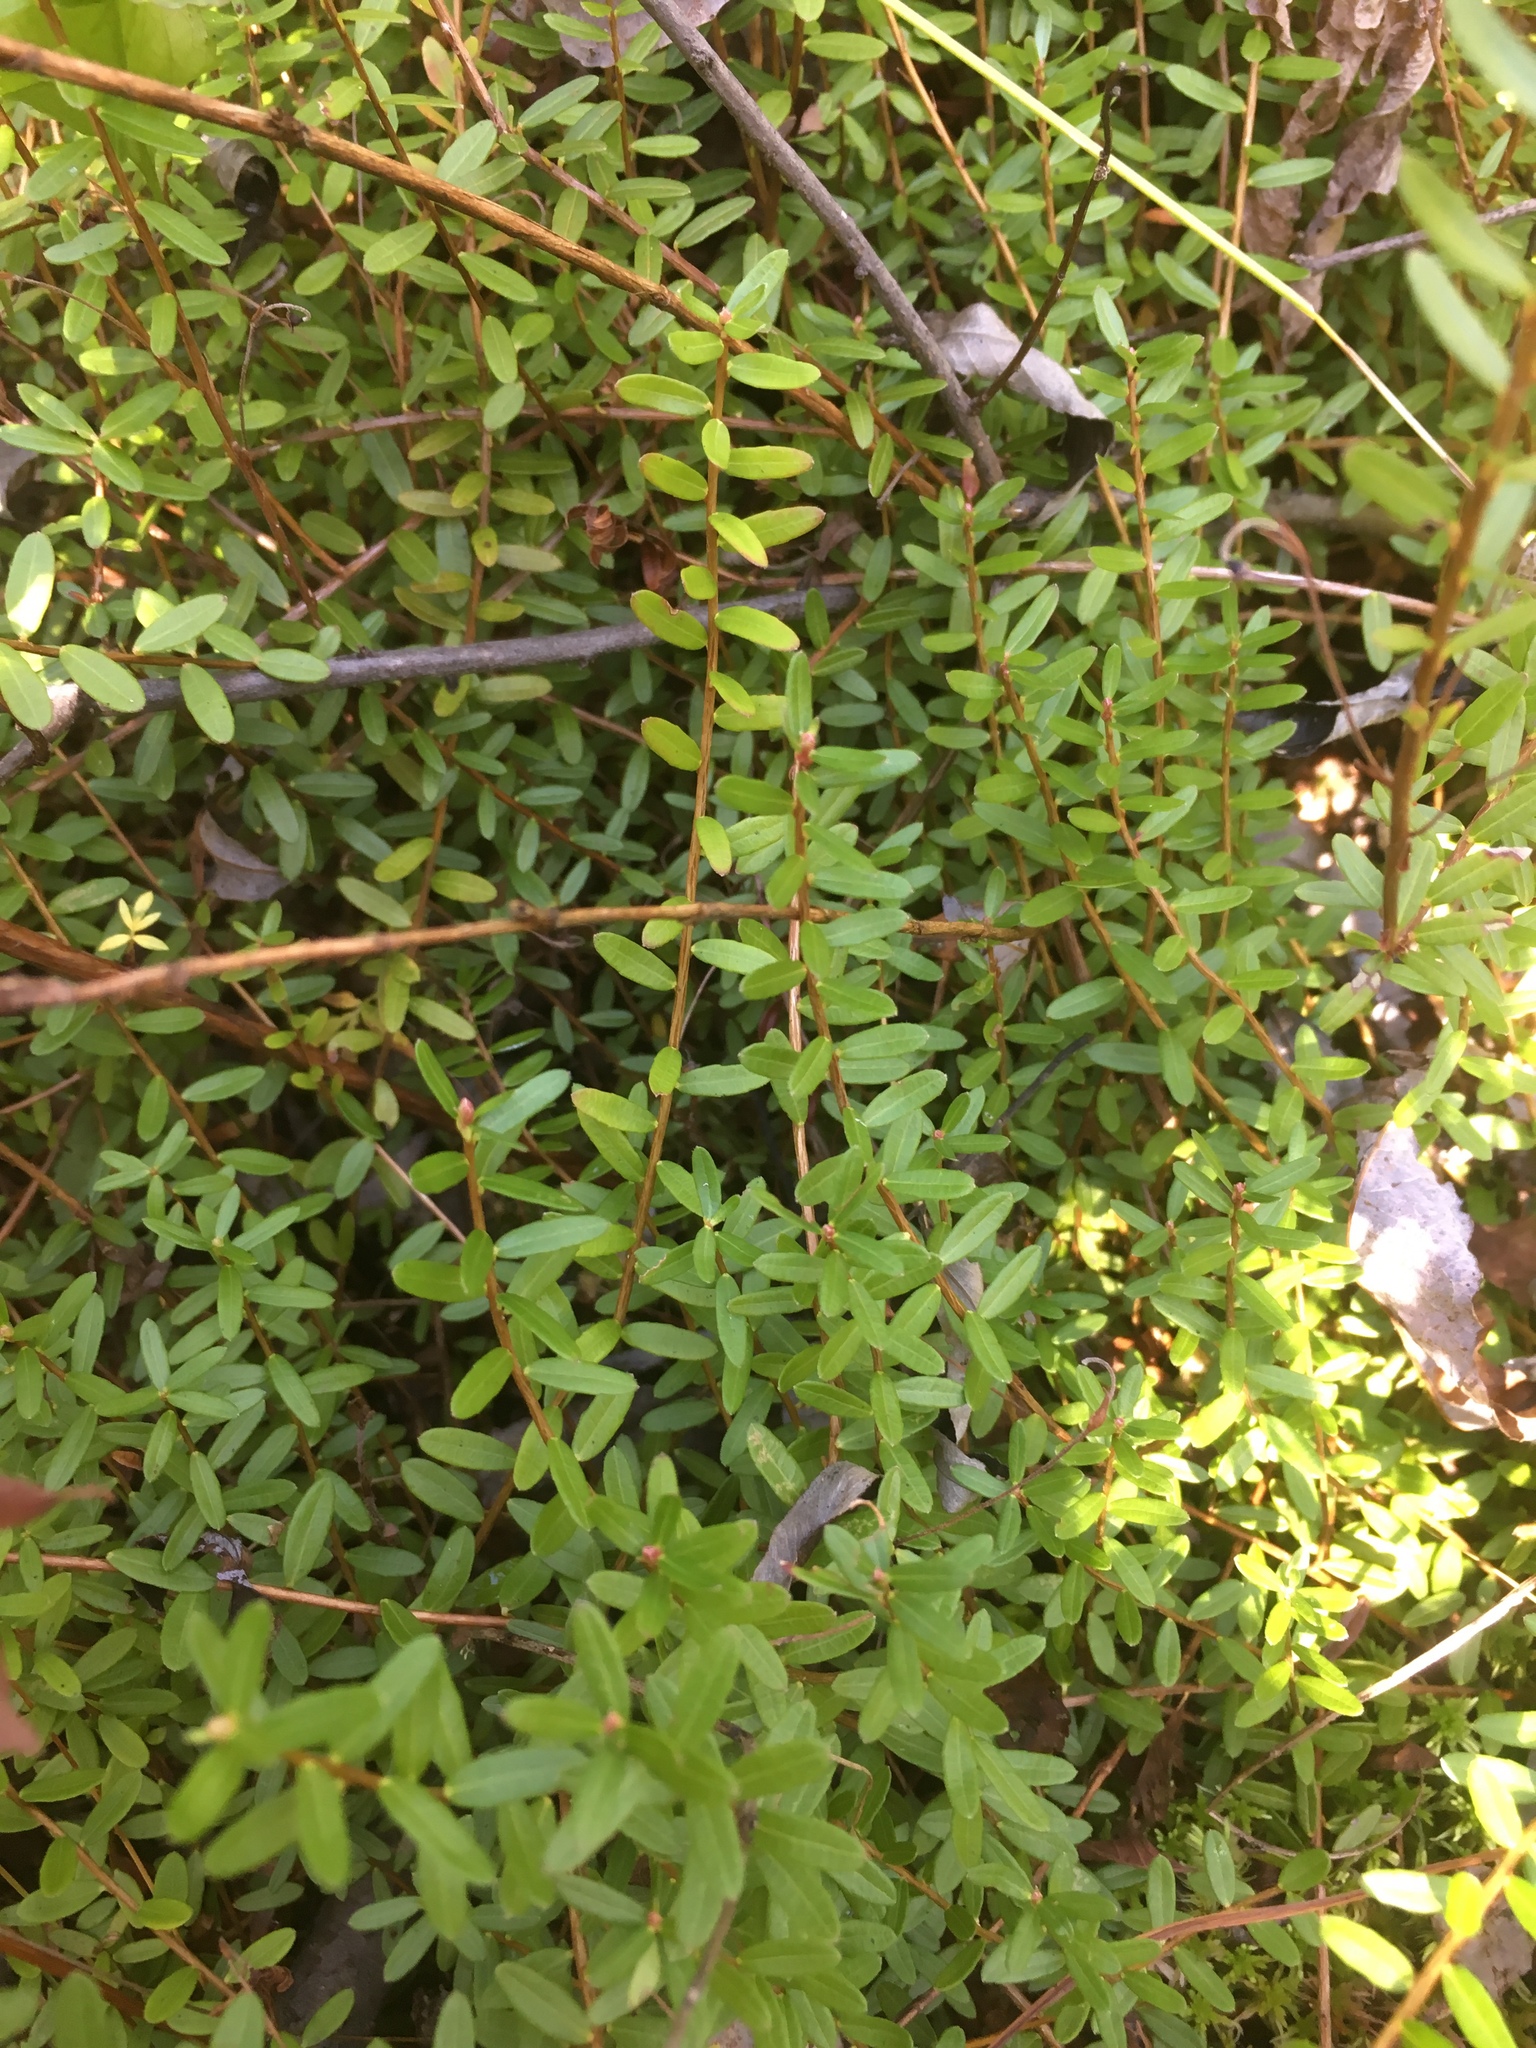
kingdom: Plantae
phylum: Tracheophyta
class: Magnoliopsida
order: Ericales
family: Ericaceae
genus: Vaccinium
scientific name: Vaccinium macrocarpon
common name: American cranberry
